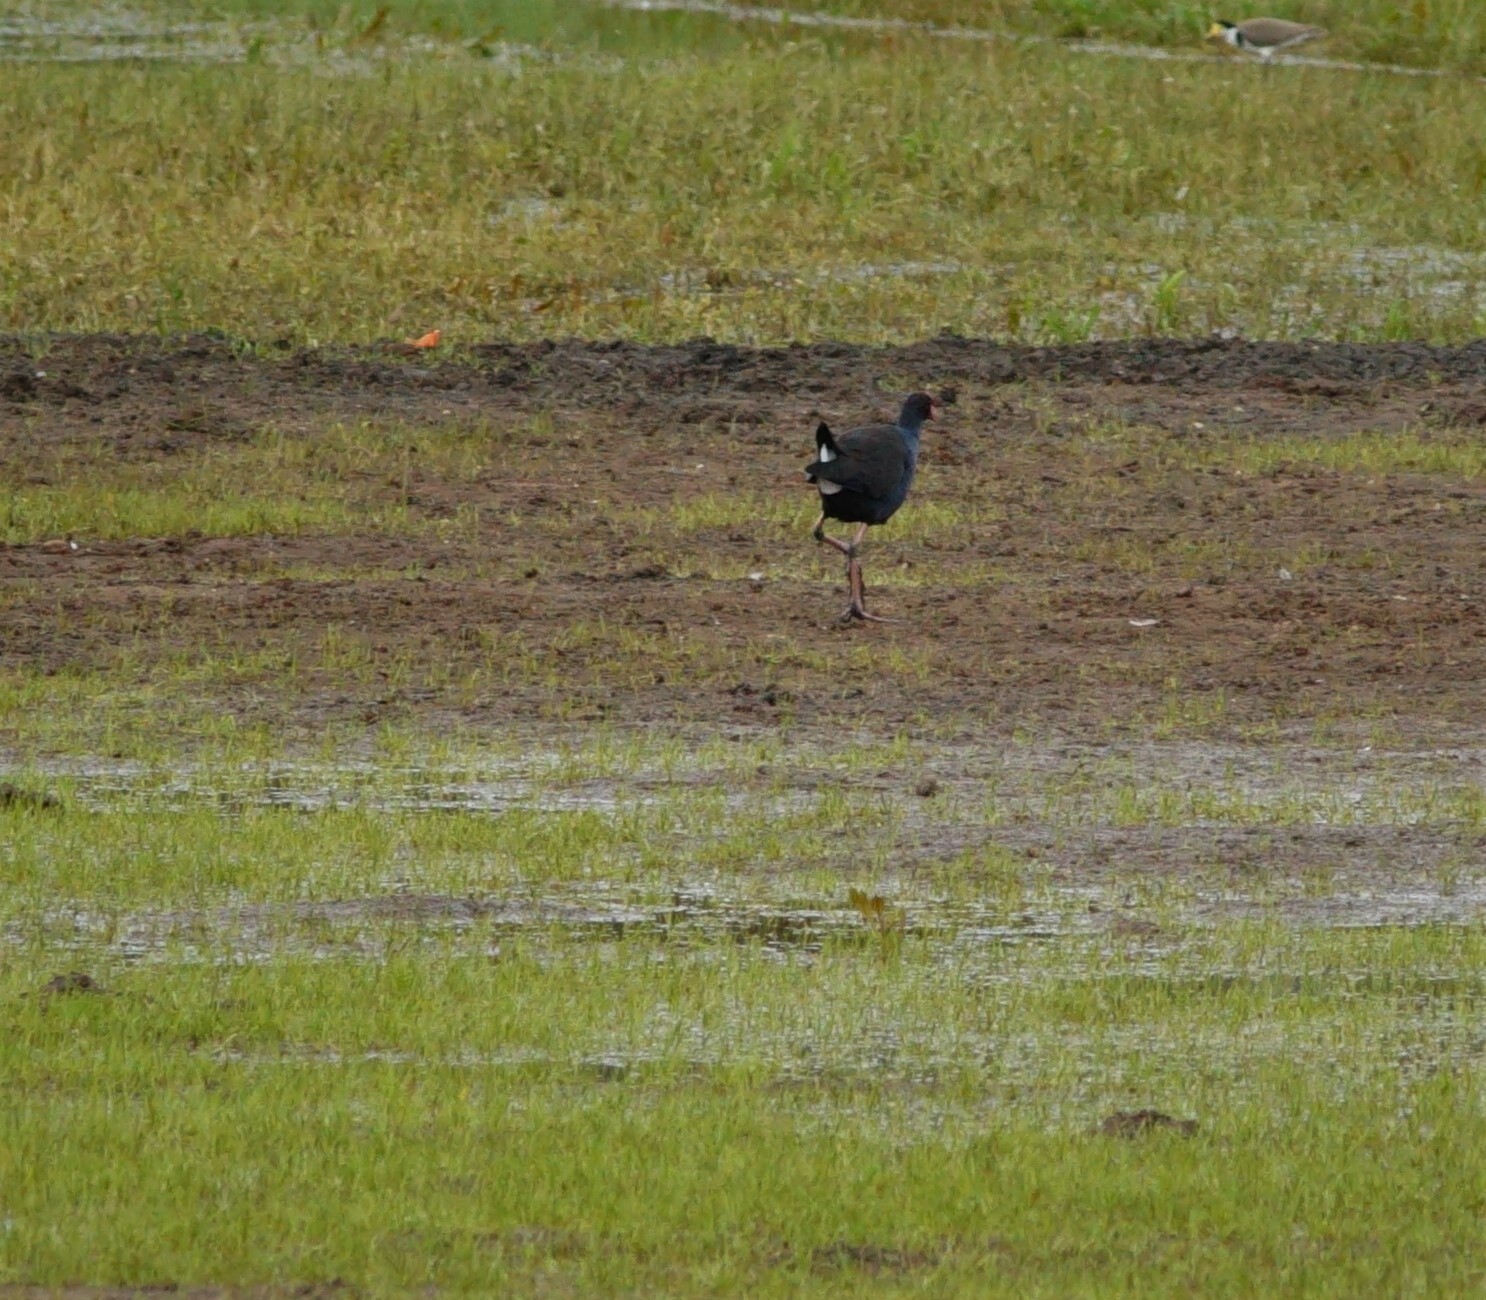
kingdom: Animalia
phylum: Chordata
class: Aves
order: Gruiformes
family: Rallidae
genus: Porphyrio
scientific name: Porphyrio melanotus
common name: Australasian swamphen
